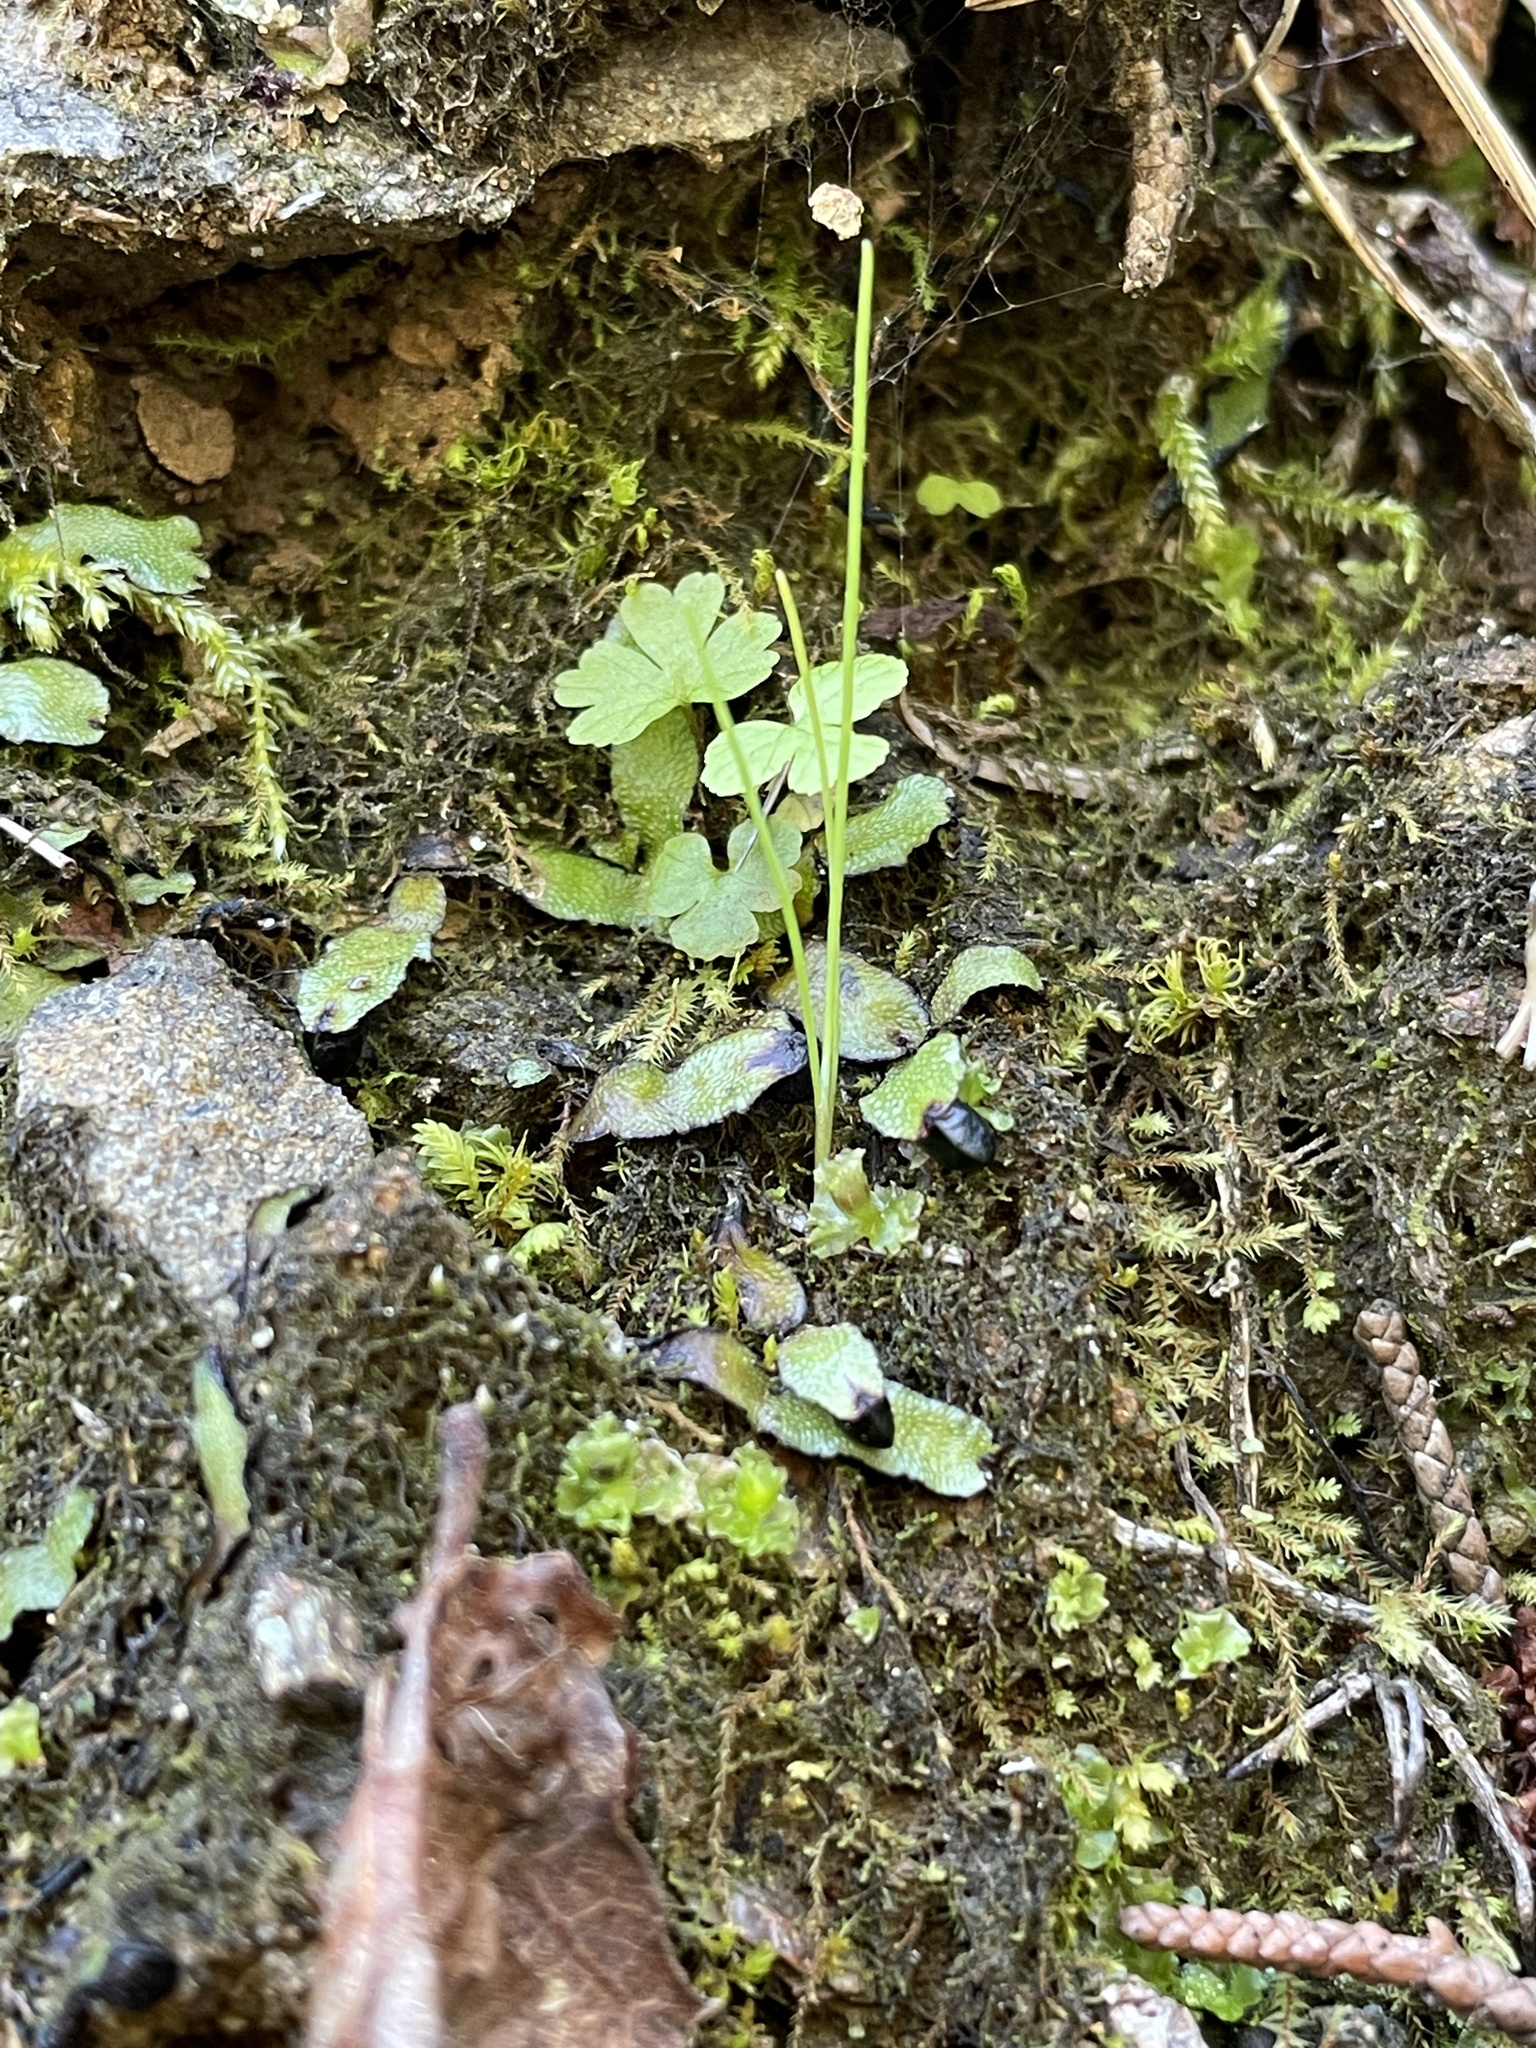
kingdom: Plantae
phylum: Marchantiophyta
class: Marchantiopsida
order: Marchantiales
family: Targioniaceae
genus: Targionia
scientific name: Targionia hypophylla
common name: Orobus-seed liverwort
